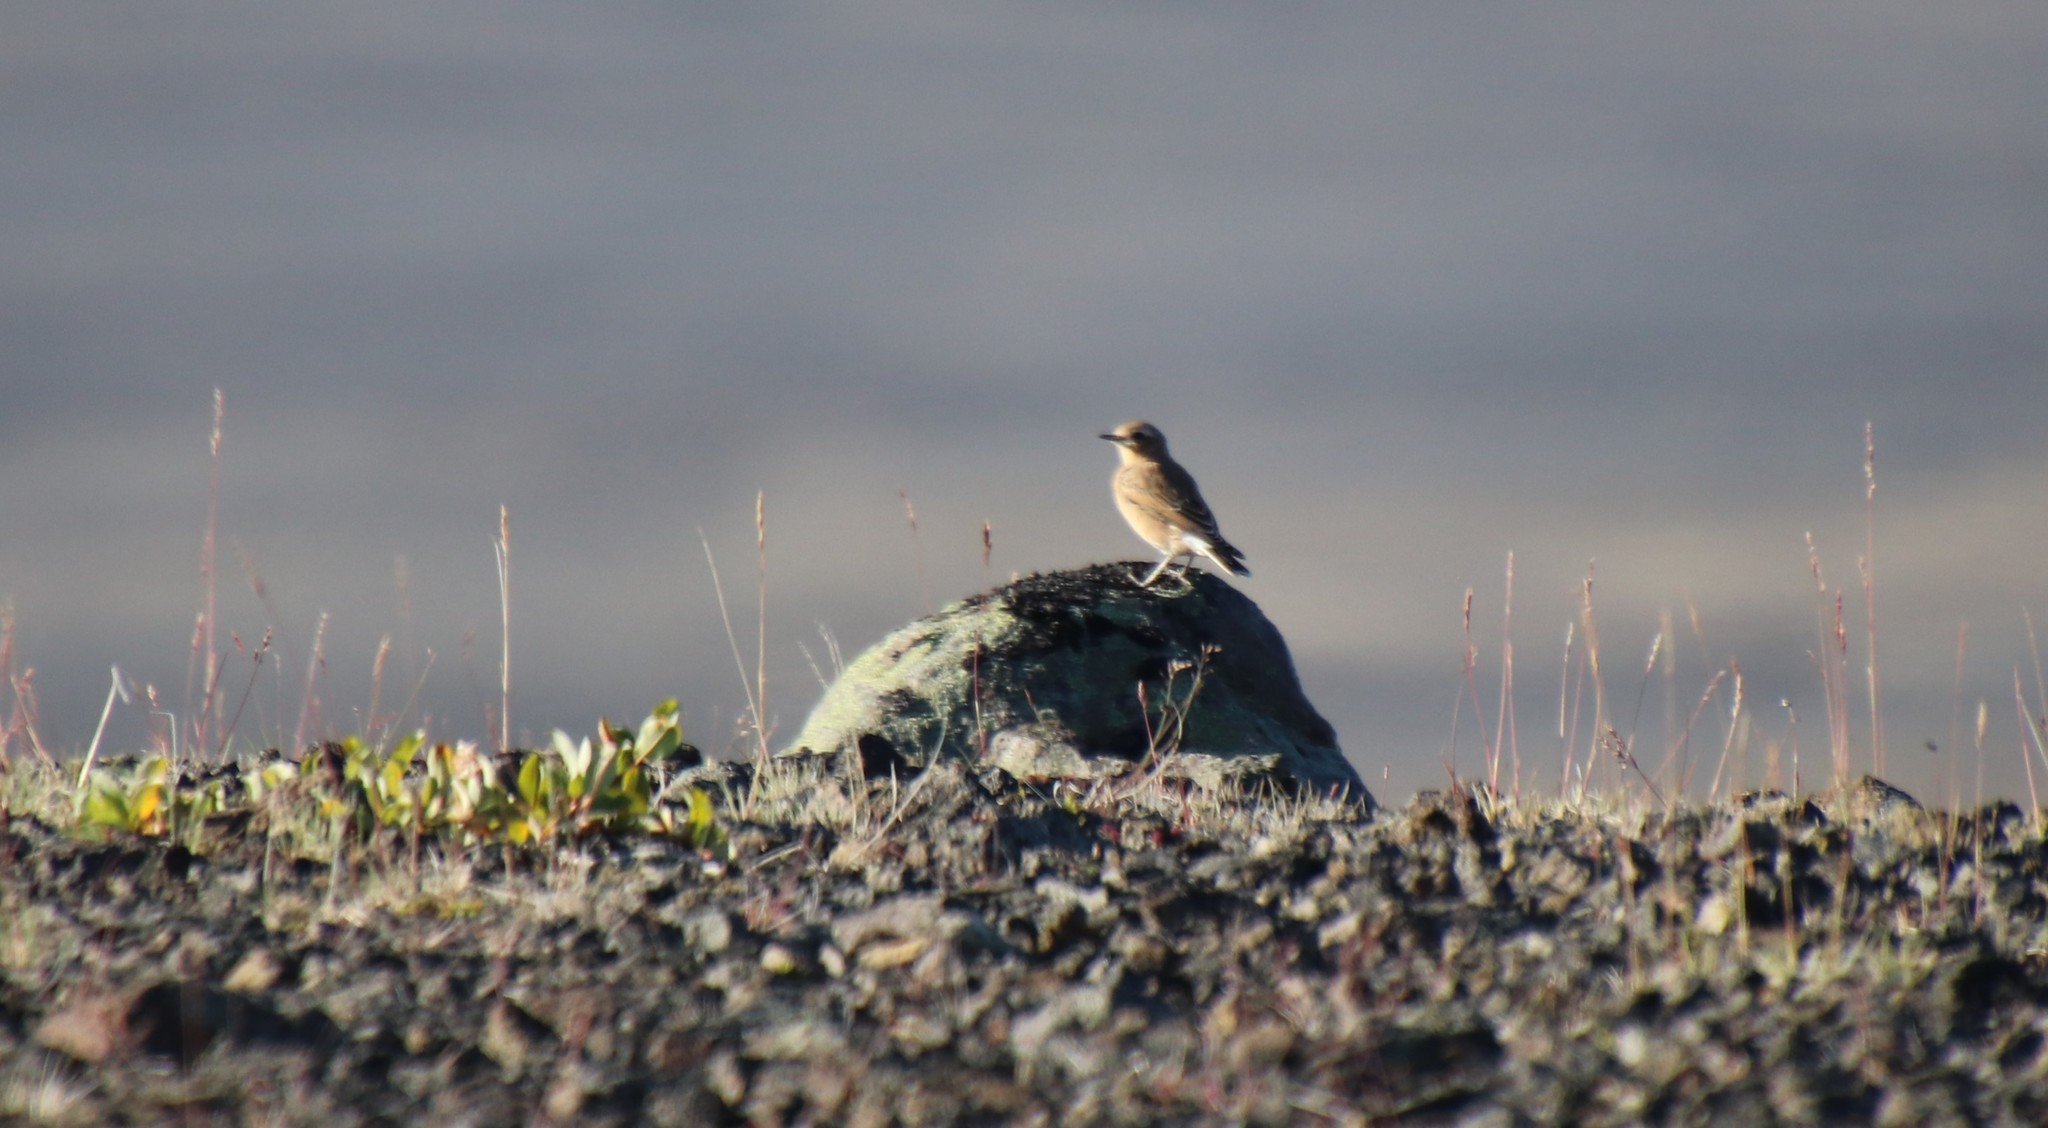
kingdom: Animalia
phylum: Chordata
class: Aves
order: Passeriformes
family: Muscicapidae
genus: Oenanthe
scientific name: Oenanthe oenanthe
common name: Northern wheatear
